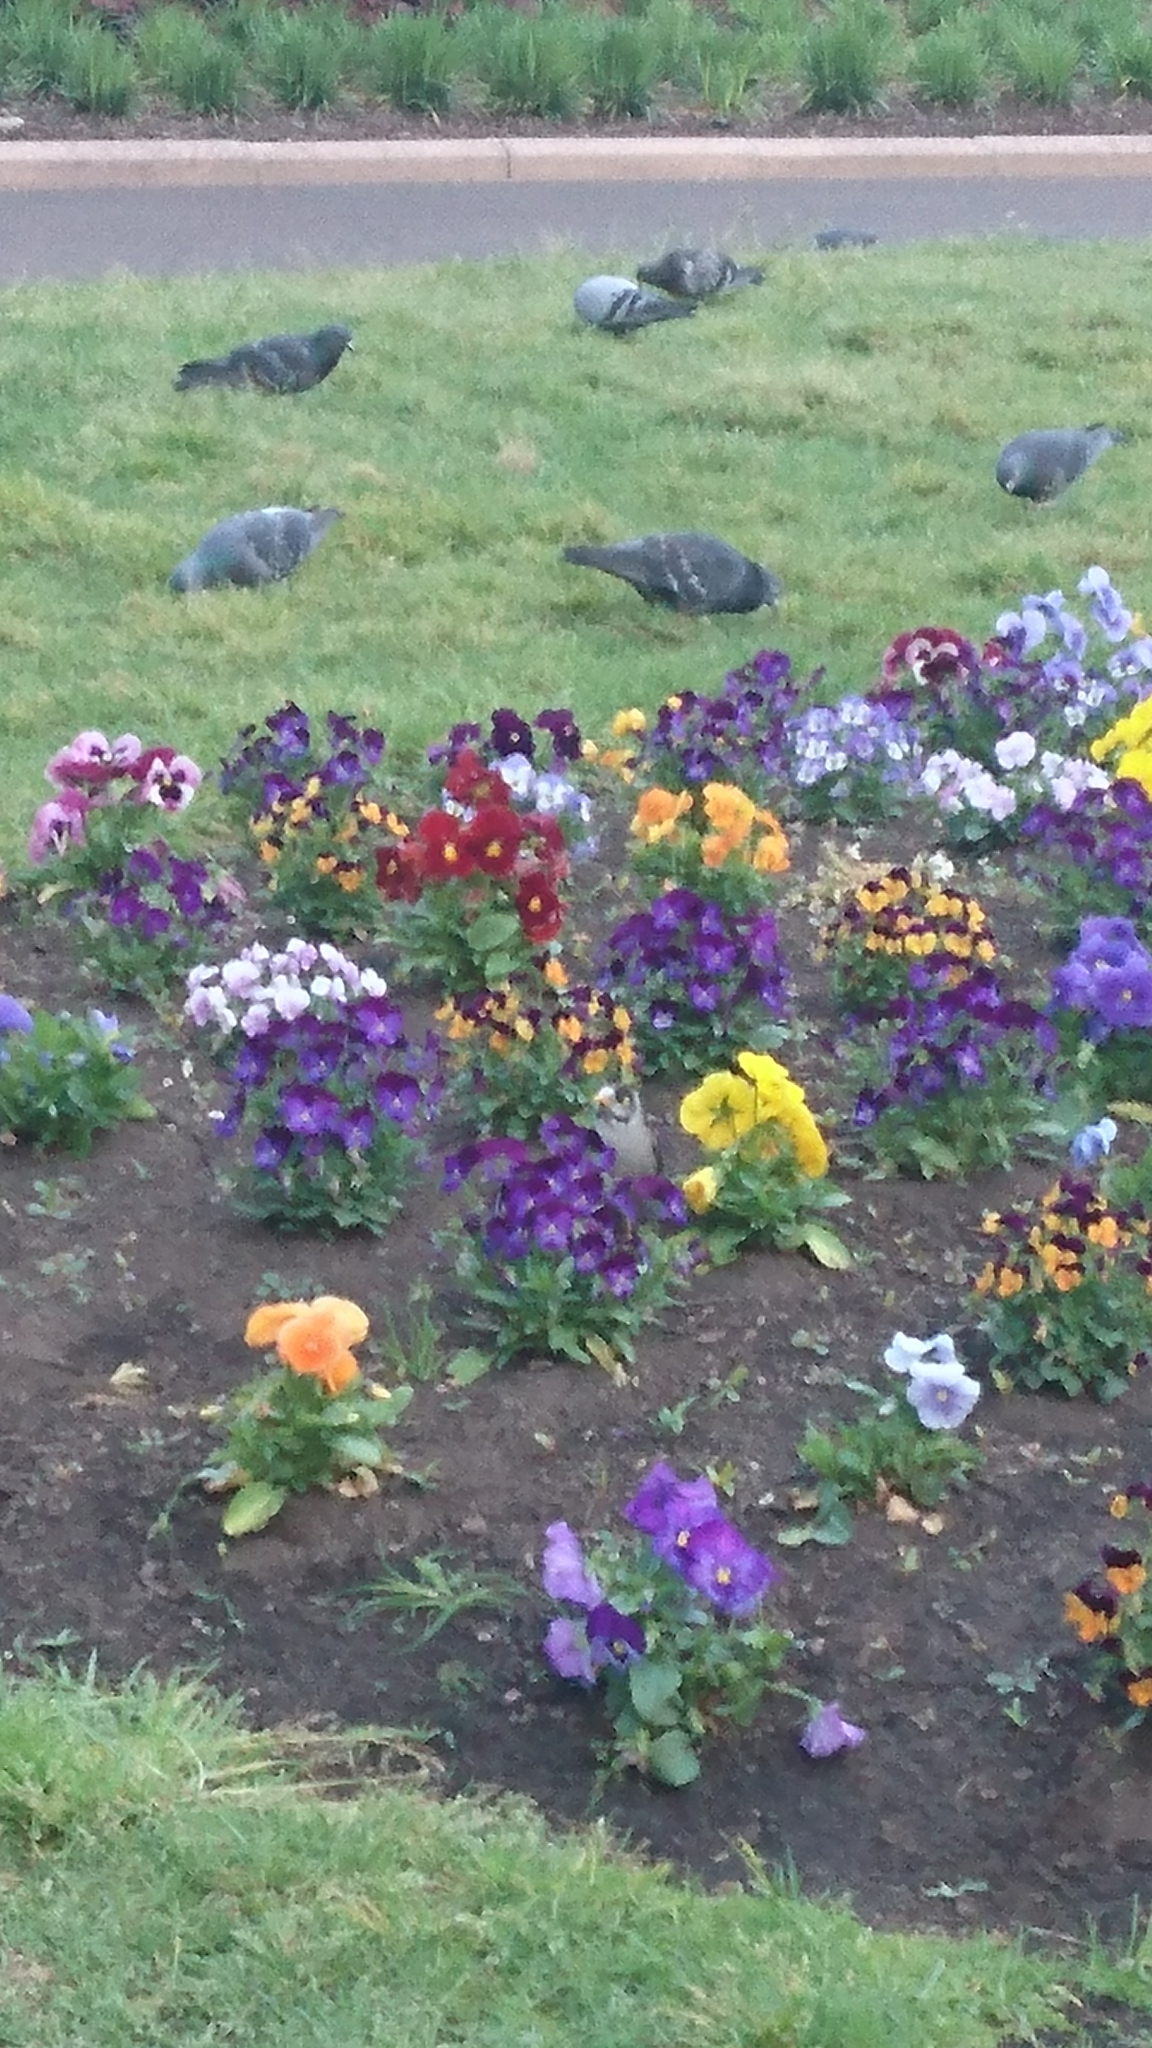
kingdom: Animalia
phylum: Chordata
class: Aves
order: Passeriformes
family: Meliphagidae
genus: Manorina
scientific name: Manorina melanocephala
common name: Noisy miner
